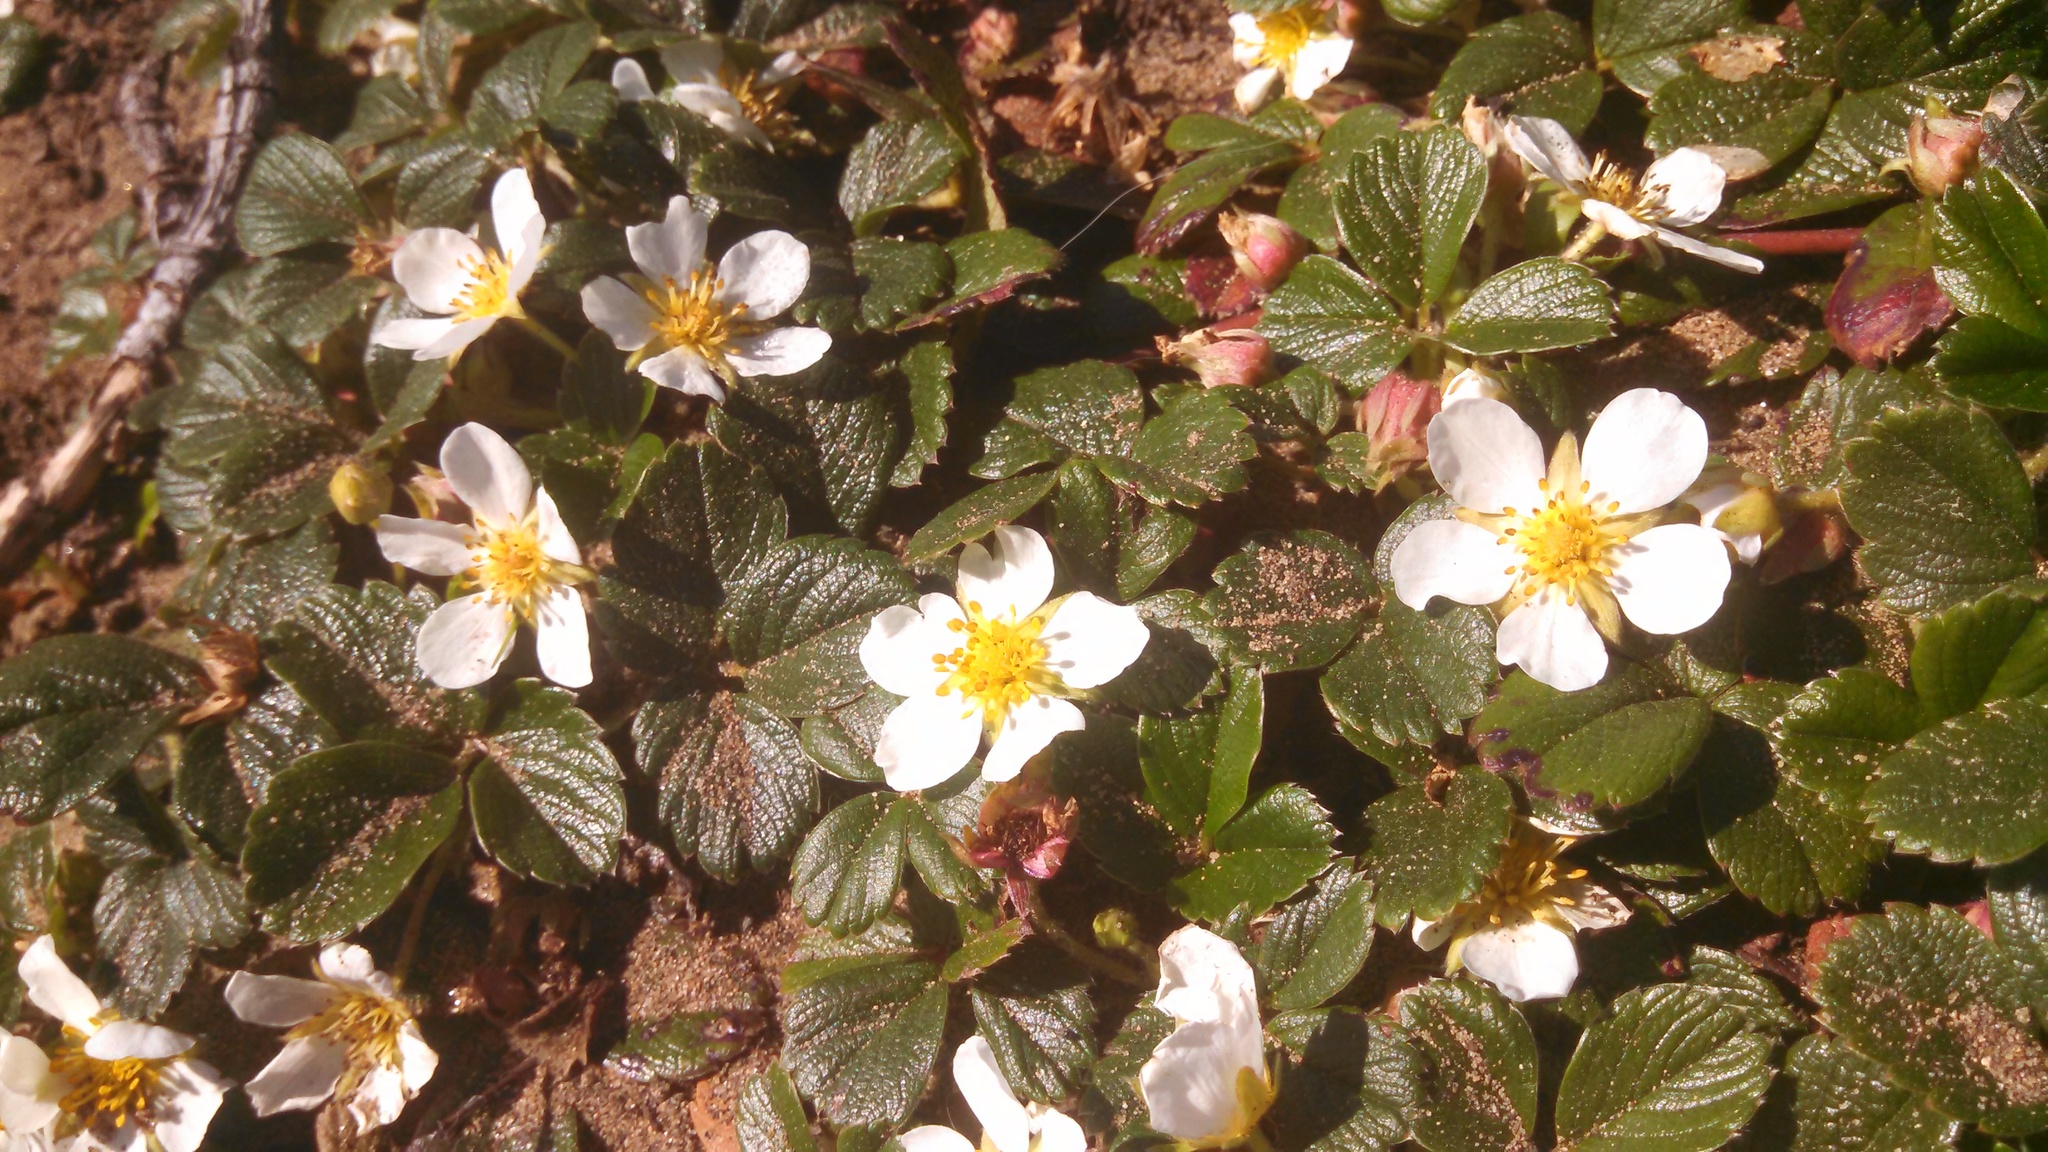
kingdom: Plantae
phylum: Tracheophyta
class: Magnoliopsida
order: Rosales
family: Rosaceae
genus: Fragaria
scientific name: Fragaria chiloensis
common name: Beach strawberry
